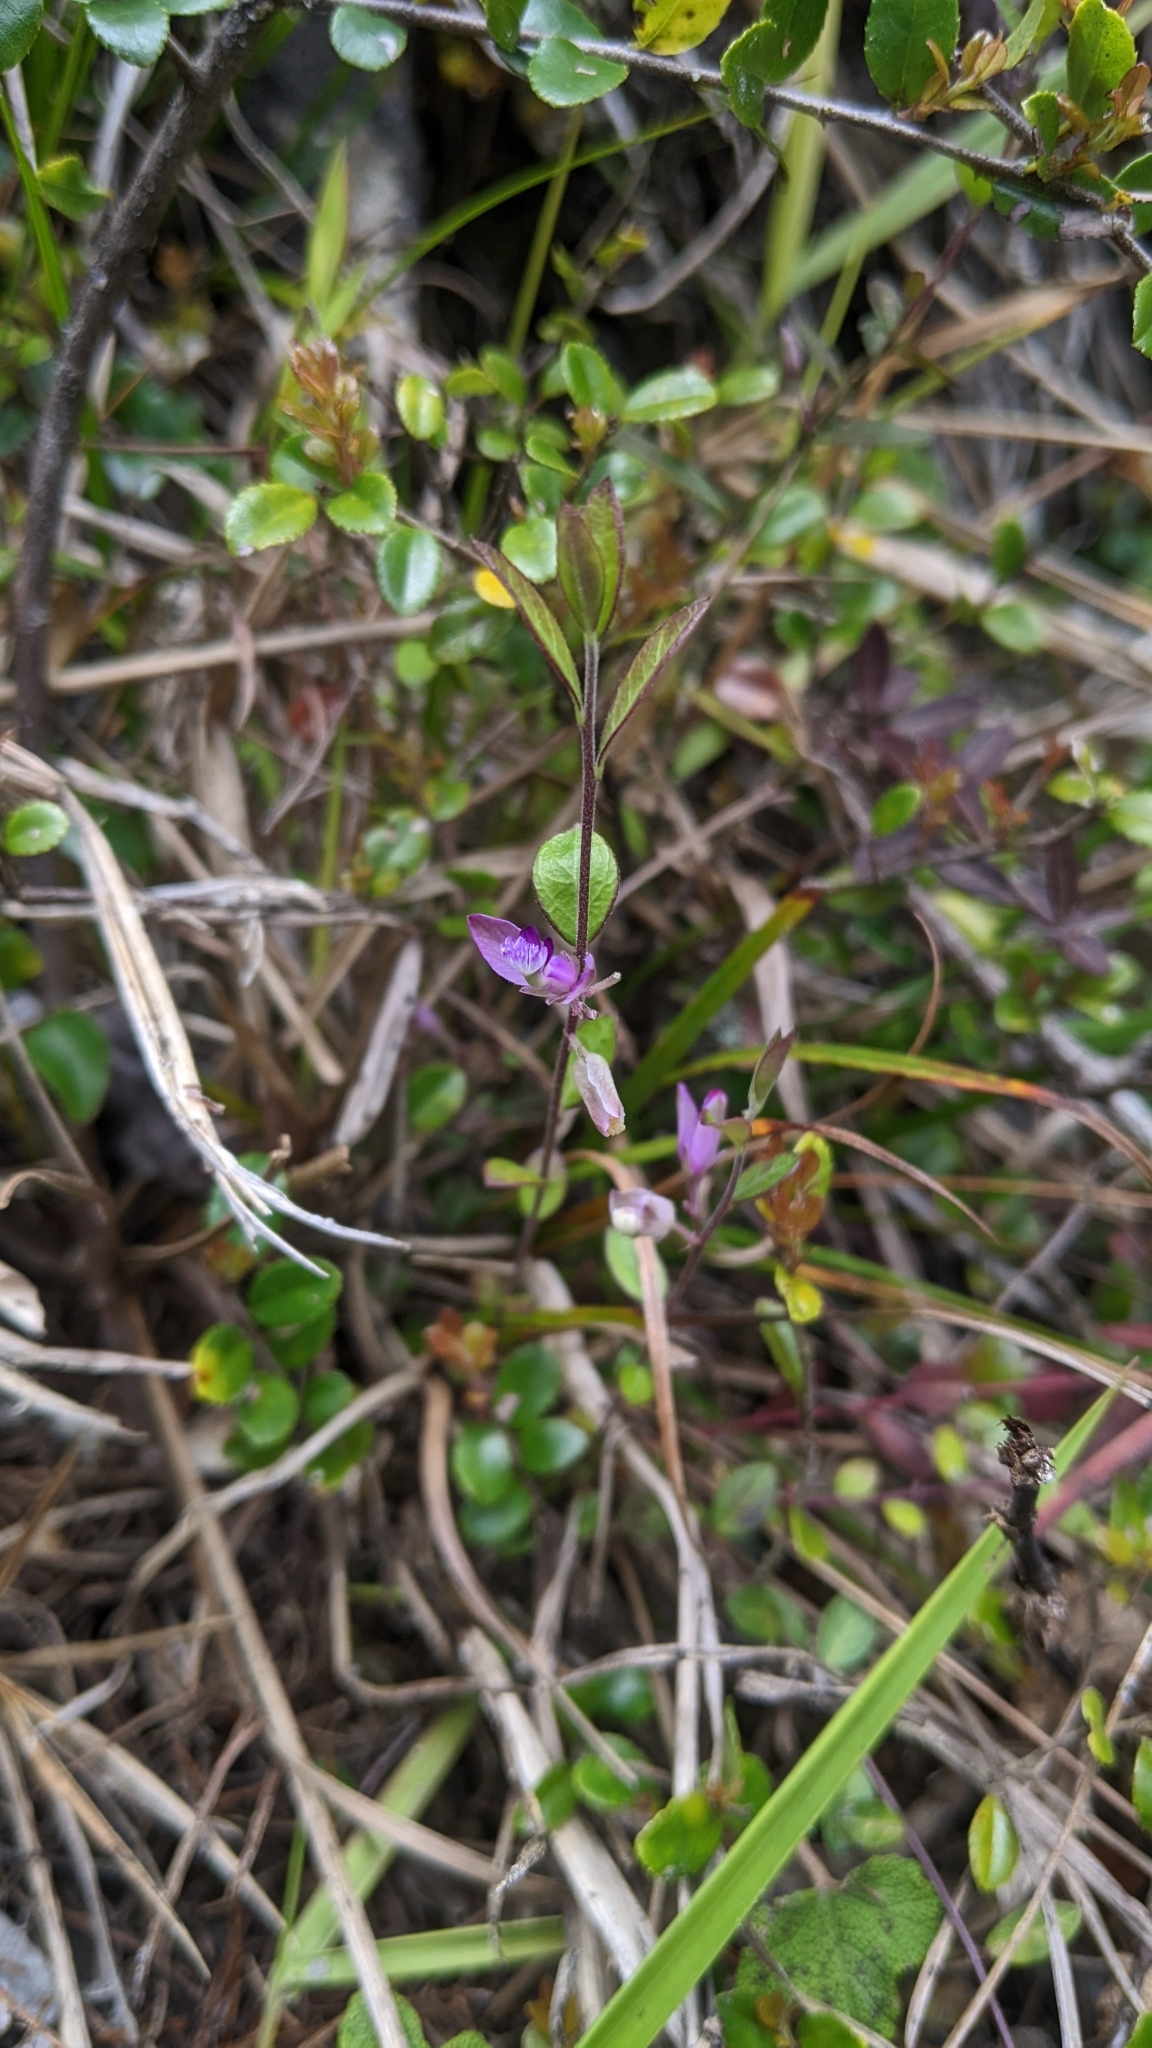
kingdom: Plantae
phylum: Tracheophyta
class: Magnoliopsida
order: Fabales
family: Polygalaceae
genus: Polygala
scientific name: Polygala japonica
